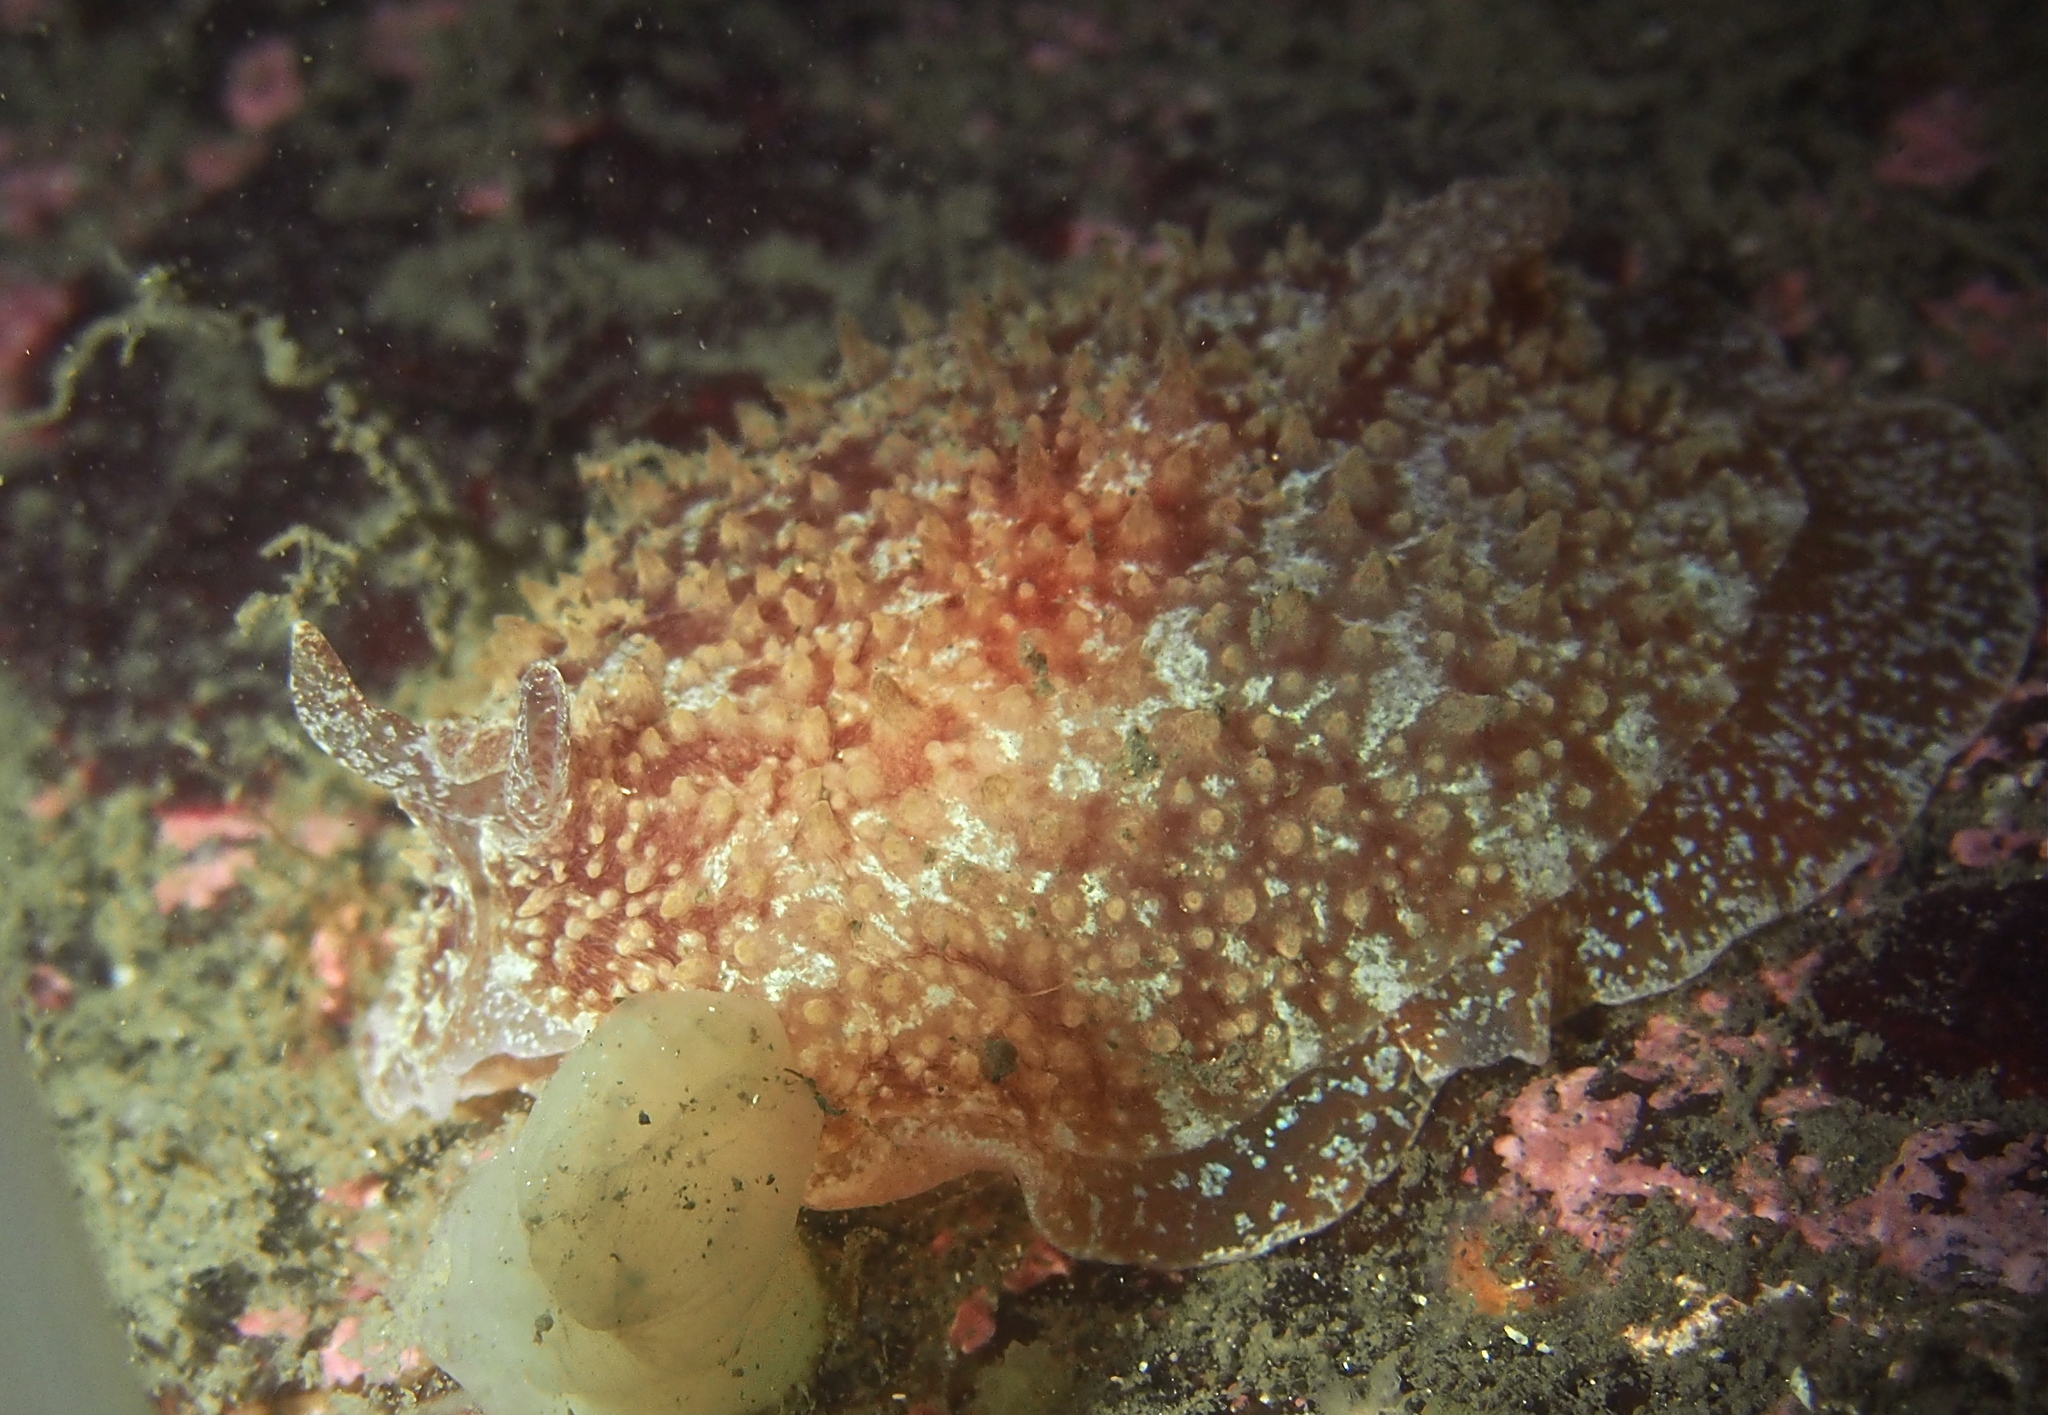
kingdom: Animalia
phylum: Mollusca
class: Gastropoda
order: Pleurobranchida
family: Pleurobranchidae
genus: Pleurobranchus
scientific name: Pleurobranchus membranaceus
